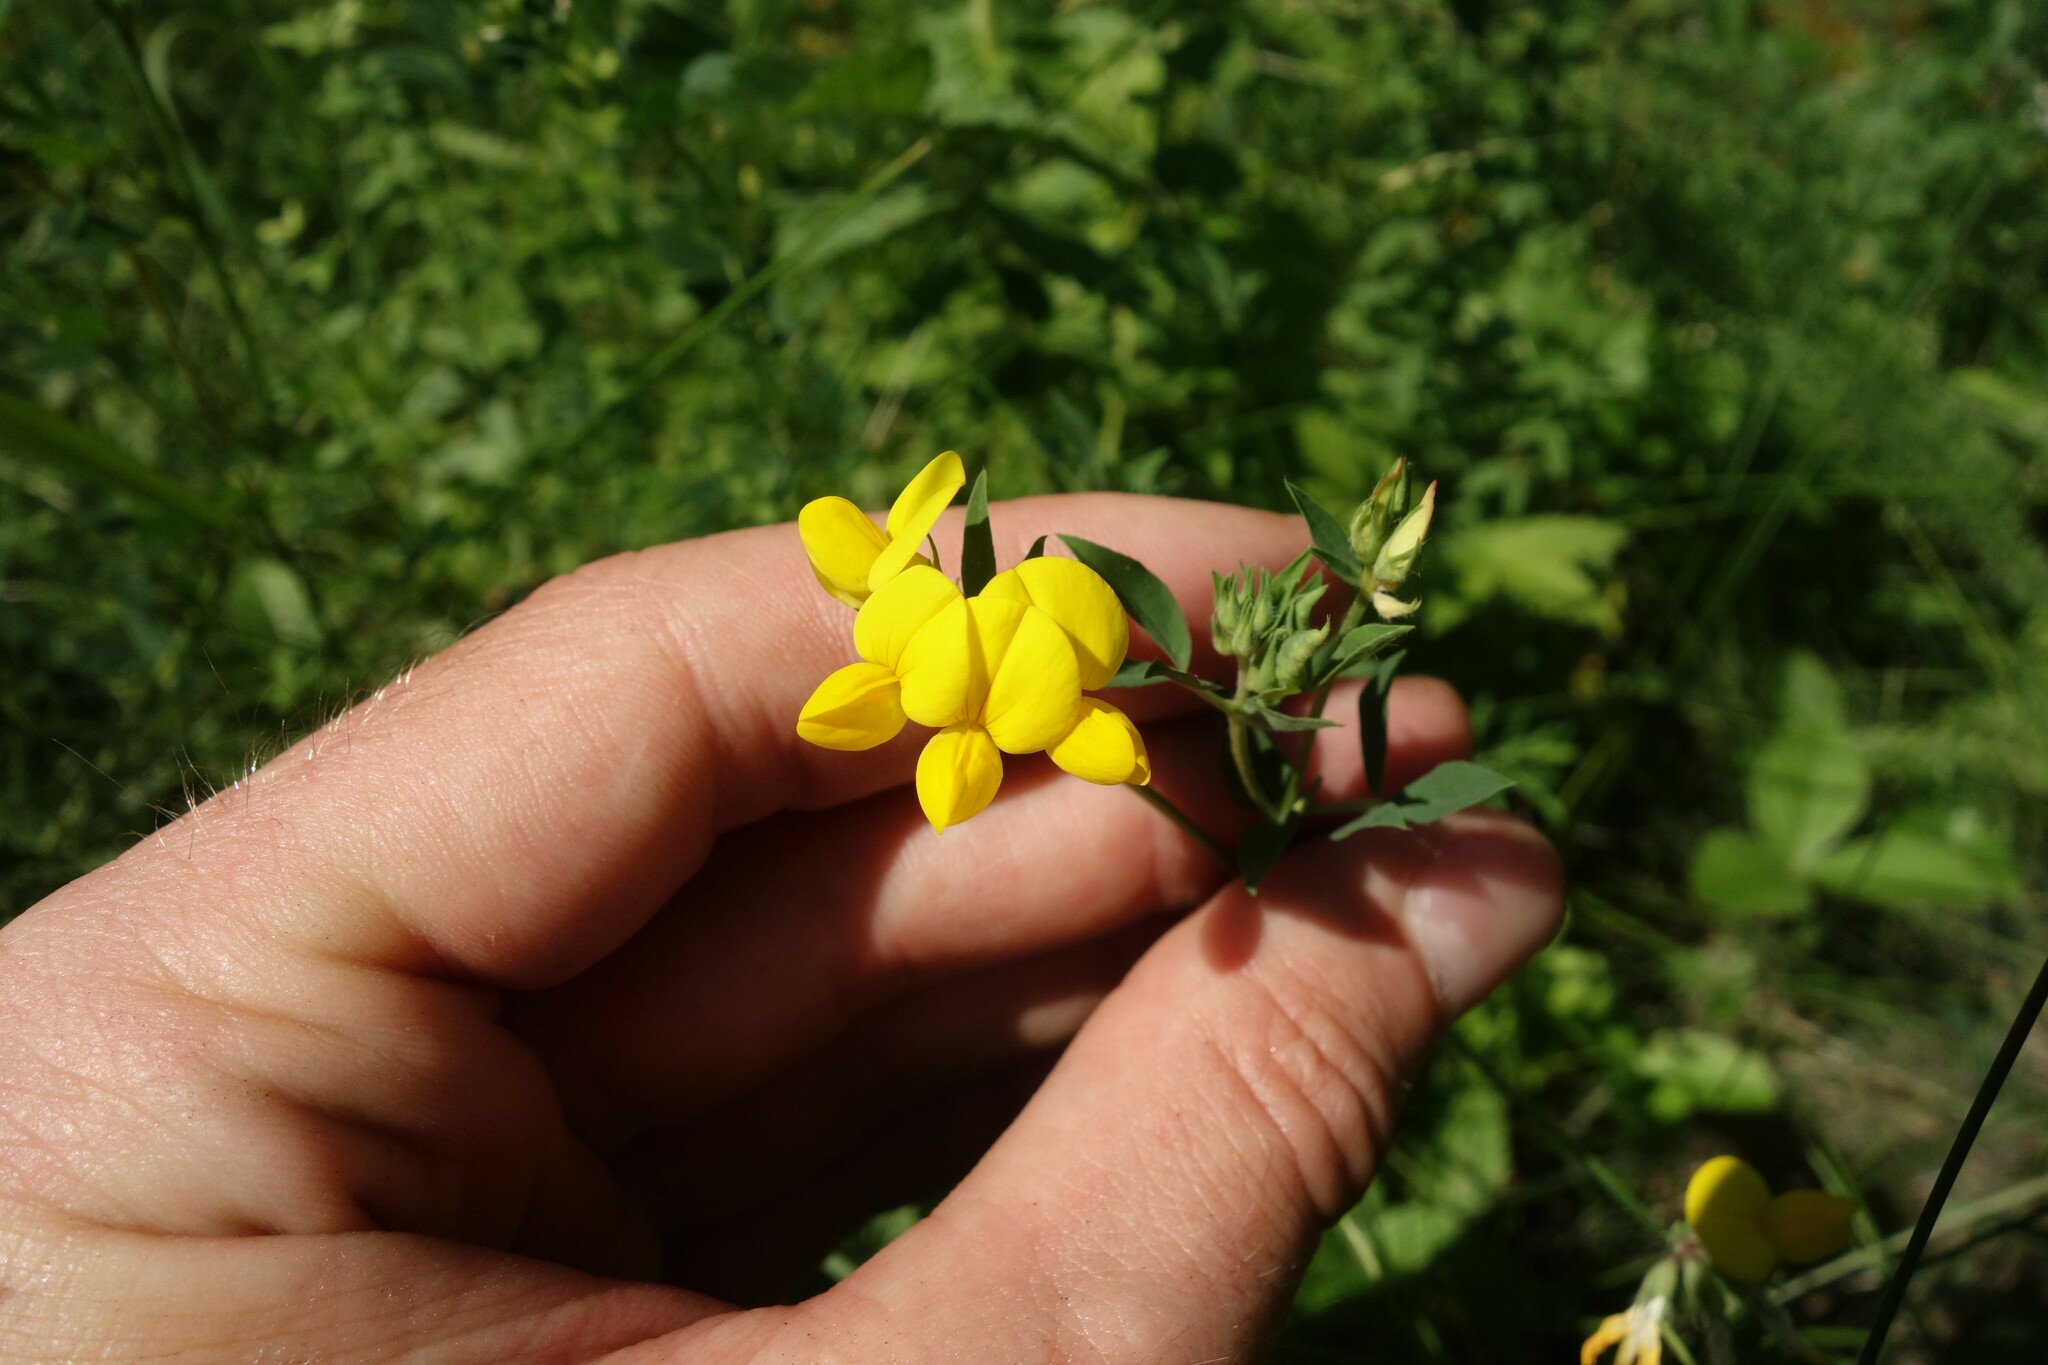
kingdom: Plantae
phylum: Tracheophyta
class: Magnoliopsida
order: Fabales
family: Fabaceae
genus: Lotus
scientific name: Lotus corniculatus
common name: Common bird's-foot-trefoil
